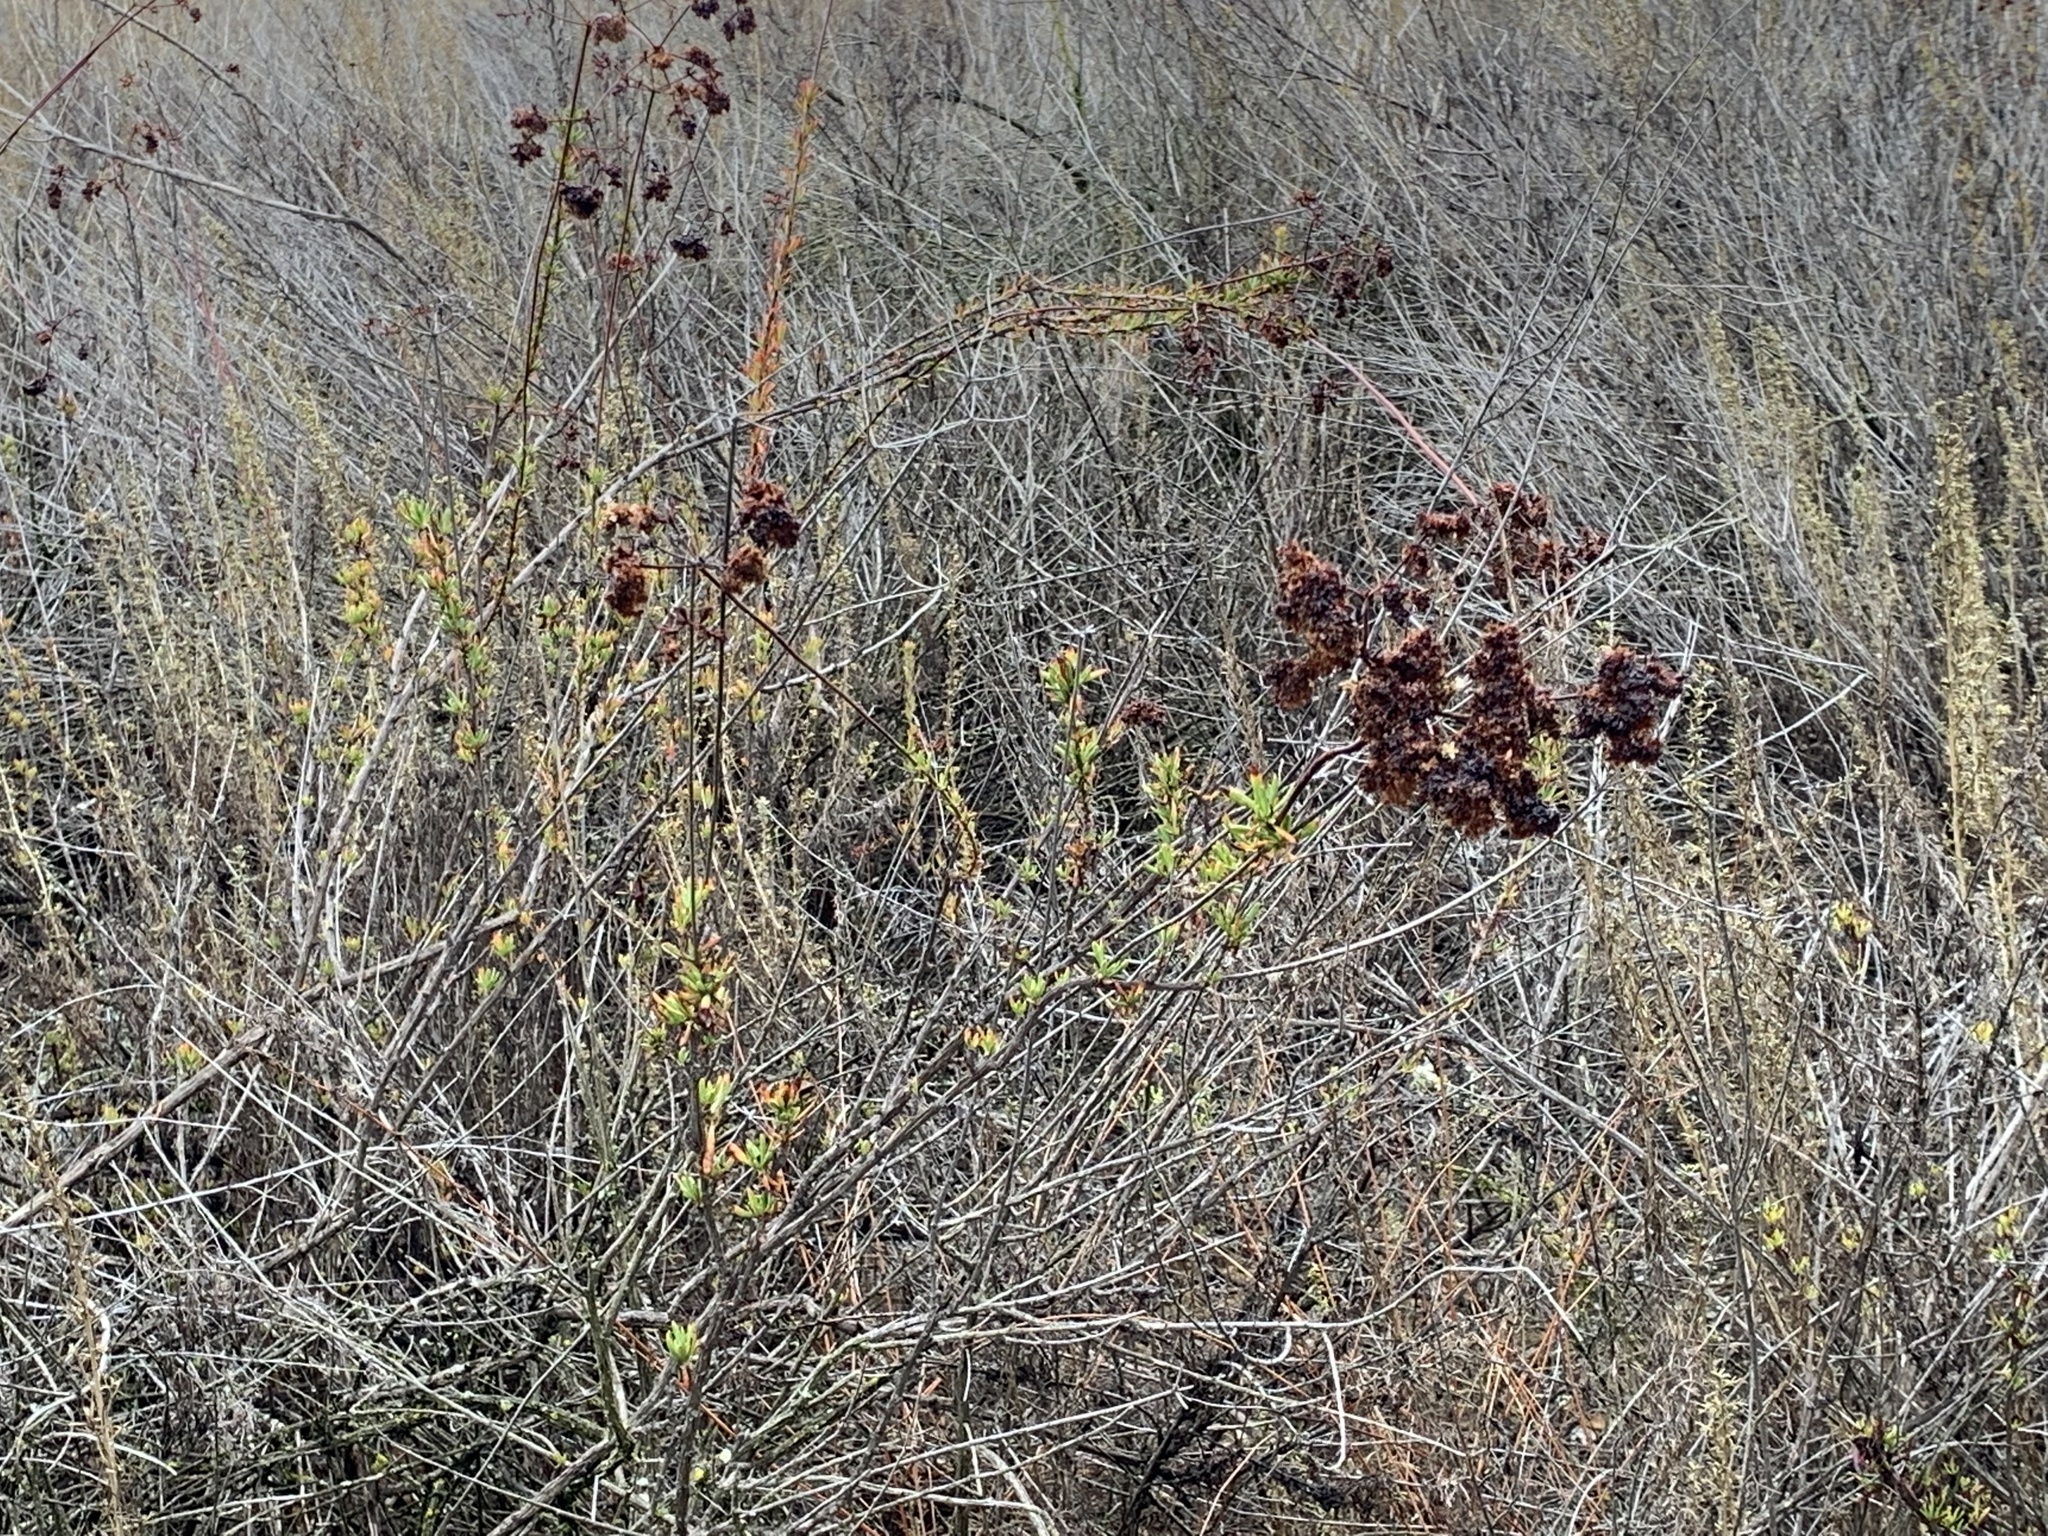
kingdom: Plantae
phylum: Tracheophyta
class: Magnoliopsida
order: Caryophyllales
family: Polygonaceae
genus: Eriogonum
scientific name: Eriogonum fasciculatum
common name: California wild buckwheat
